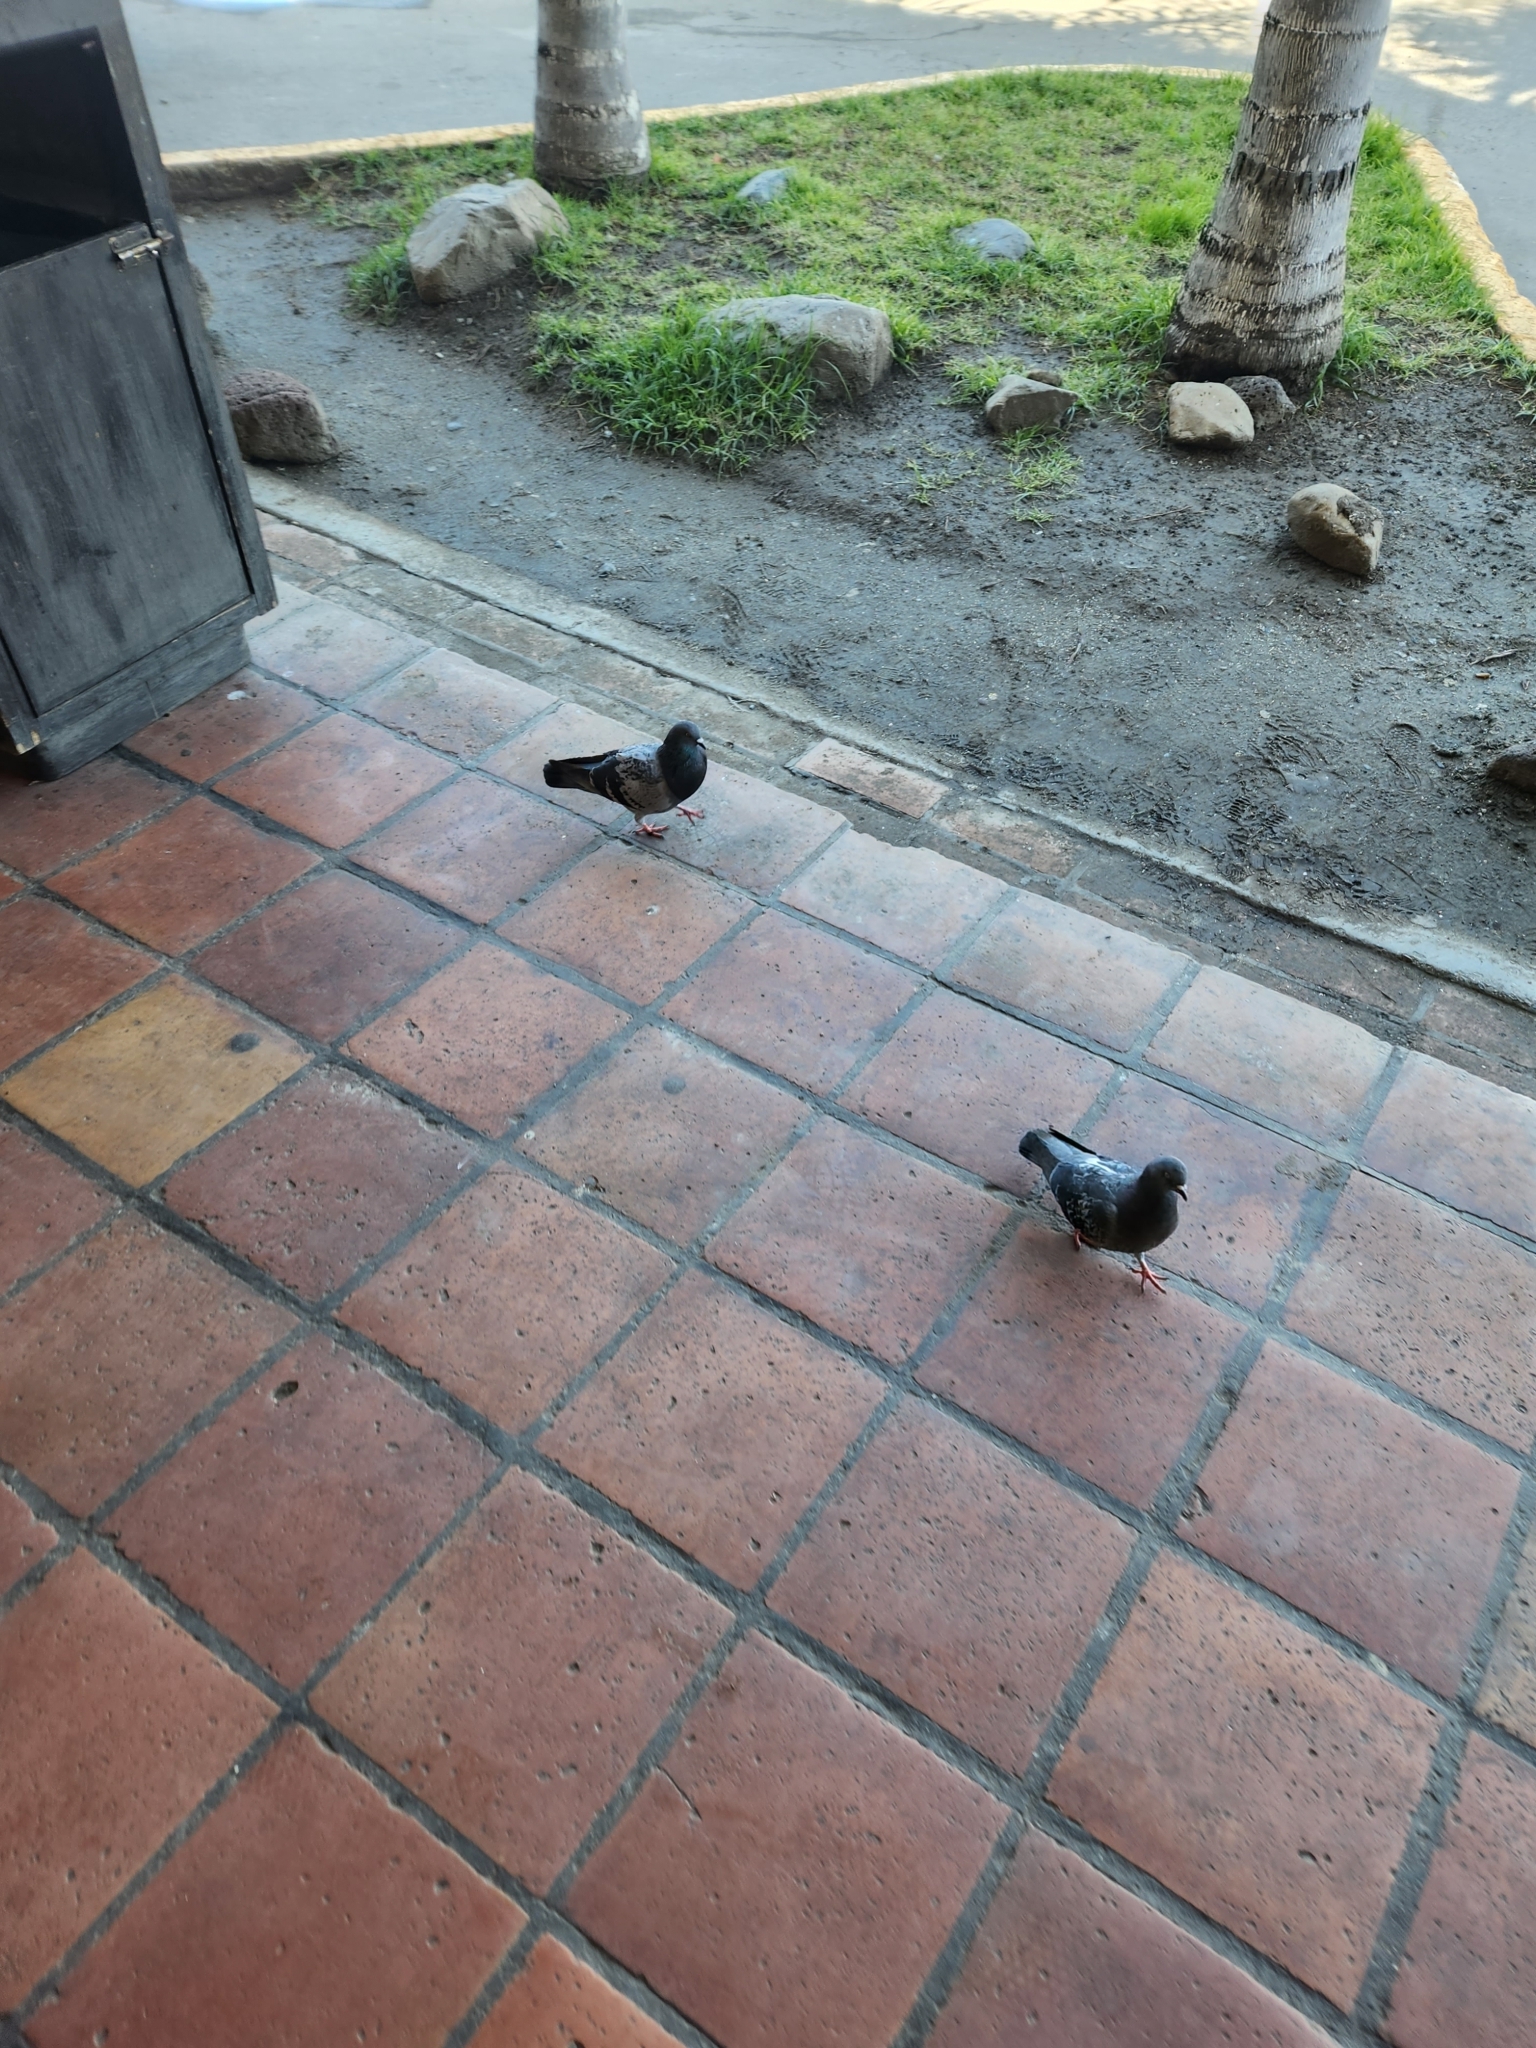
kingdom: Animalia
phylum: Chordata
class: Aves
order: Columbiformes
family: Columbidae
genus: Columba
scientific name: Columba livia
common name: Rock pigeon
